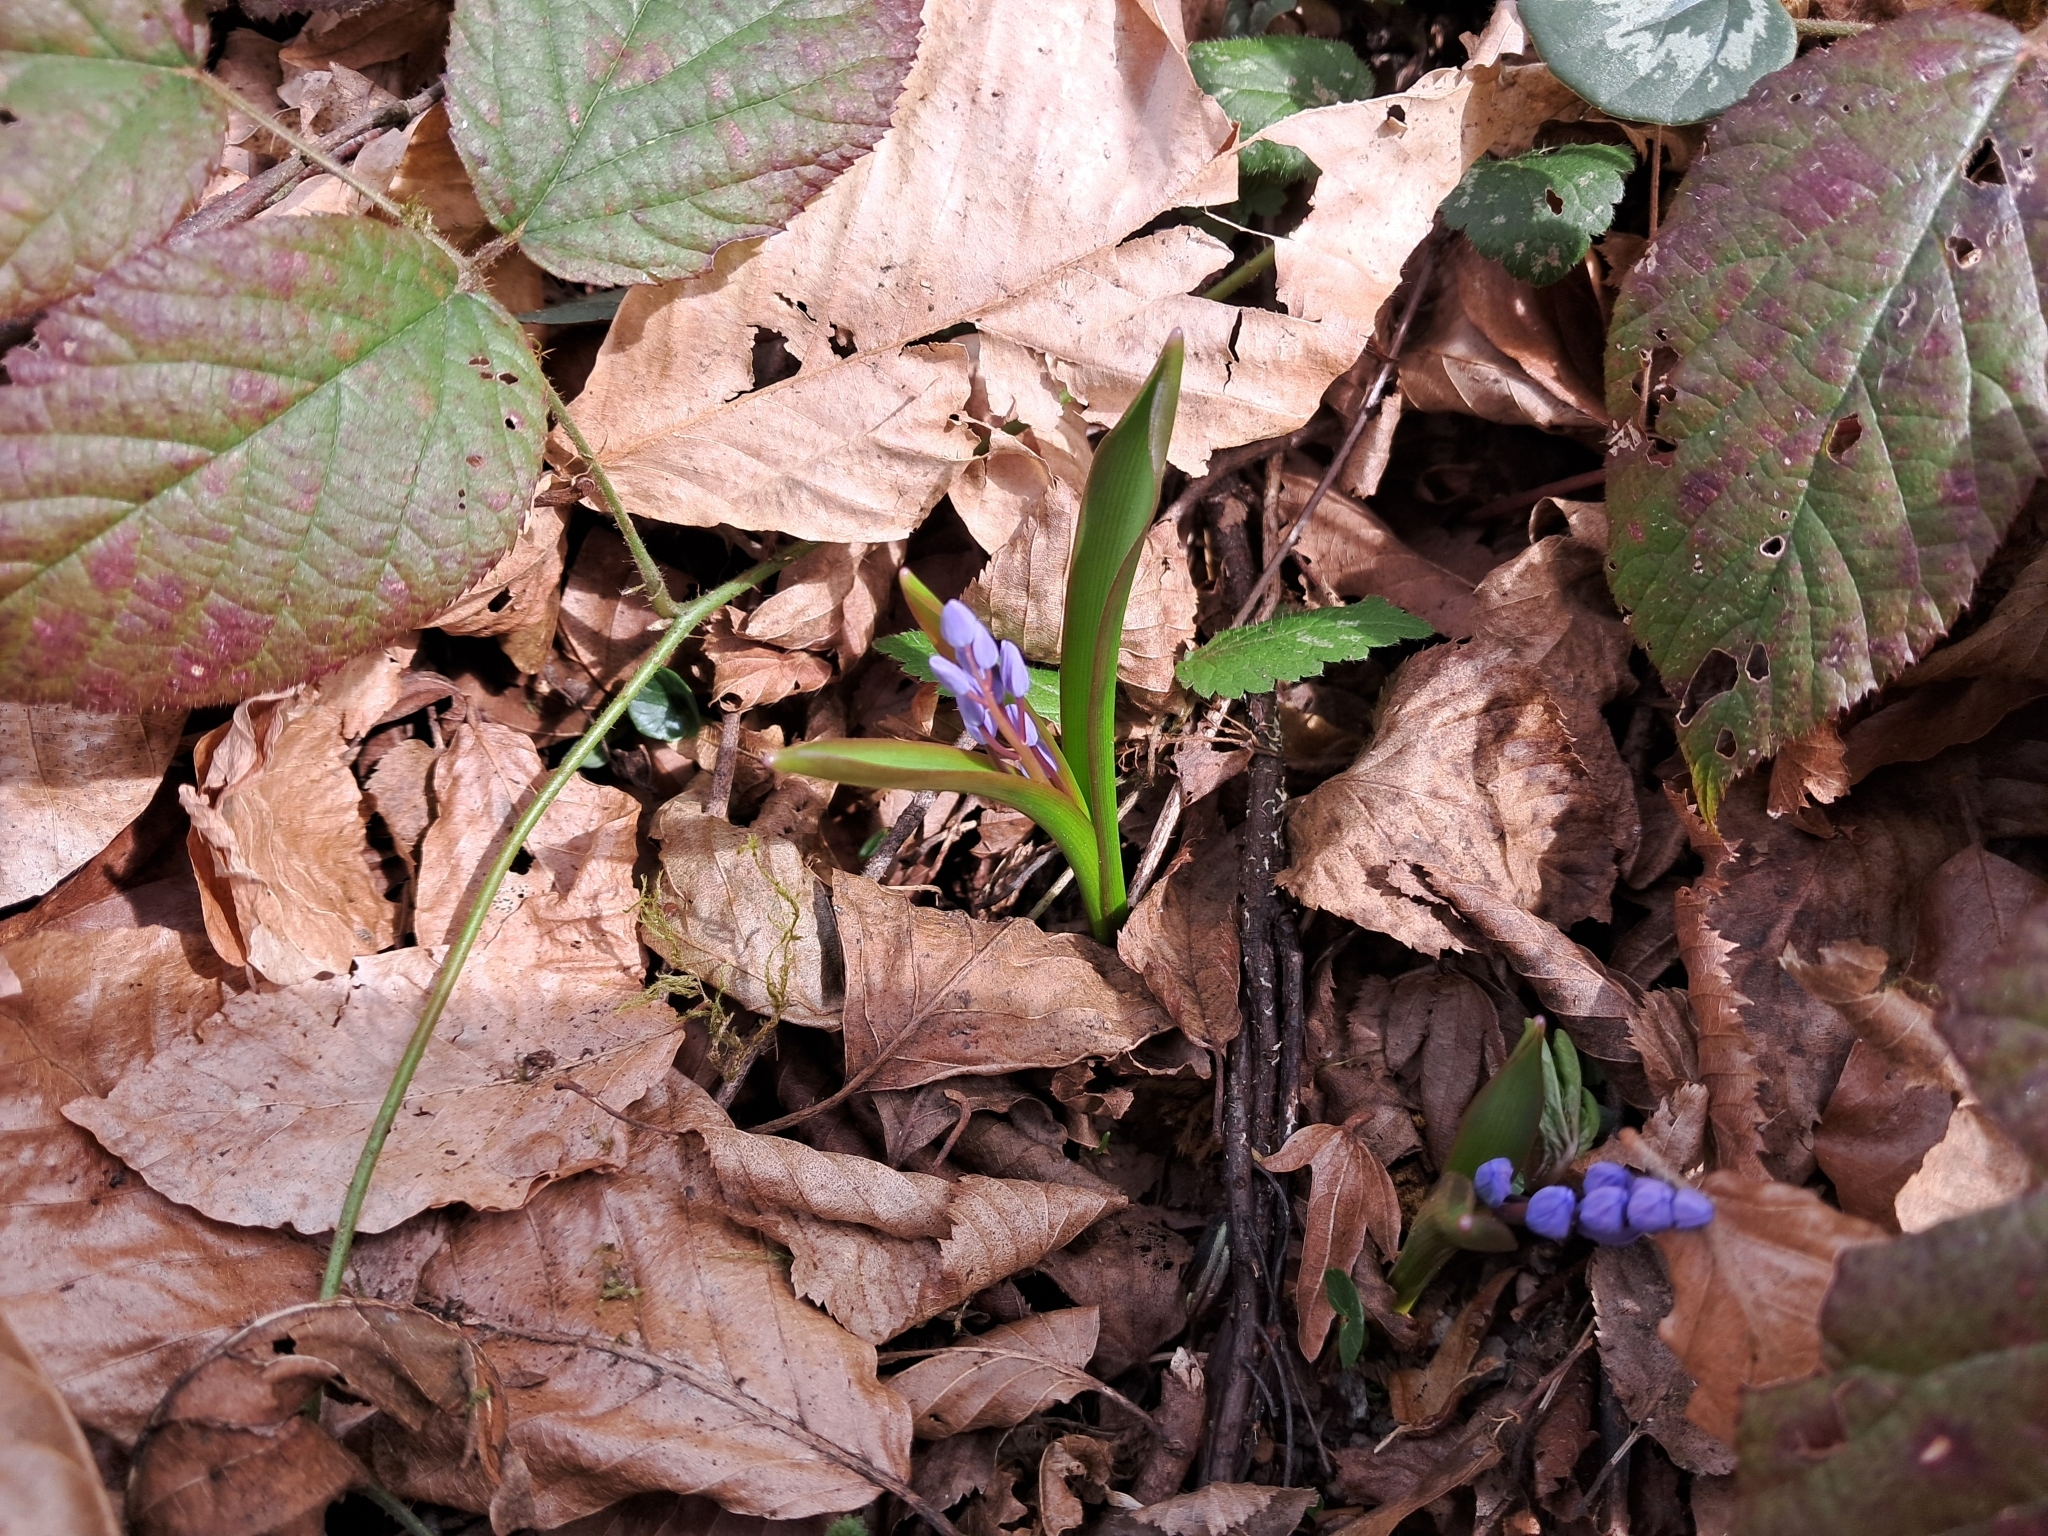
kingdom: Plantae
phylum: Tracheophyta
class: Liliopsida
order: Asparagales
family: Asparagaceae
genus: Scilla
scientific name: Scilla bifolia
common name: Alpine squill
